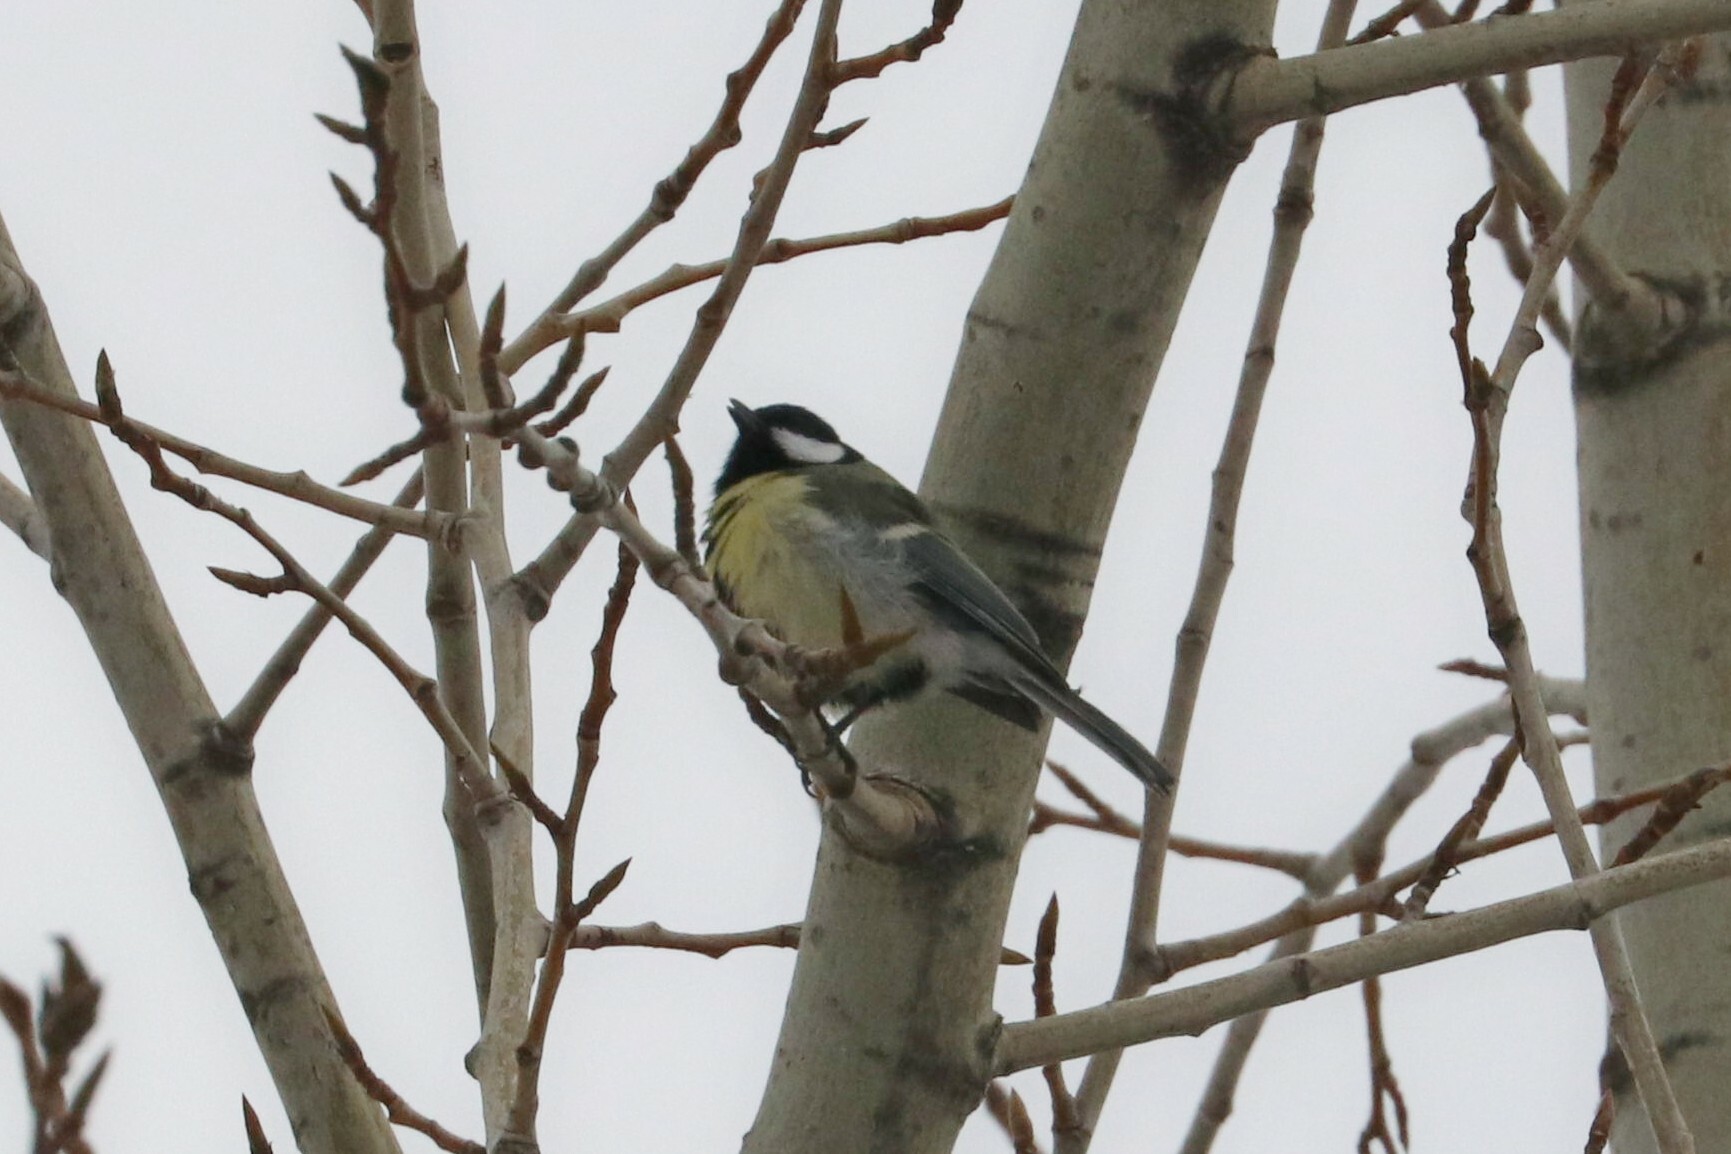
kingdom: Animalia
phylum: Chordata
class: Aves
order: Passeriformes
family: Paridae
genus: Parus
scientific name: Parus major
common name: Great tit
